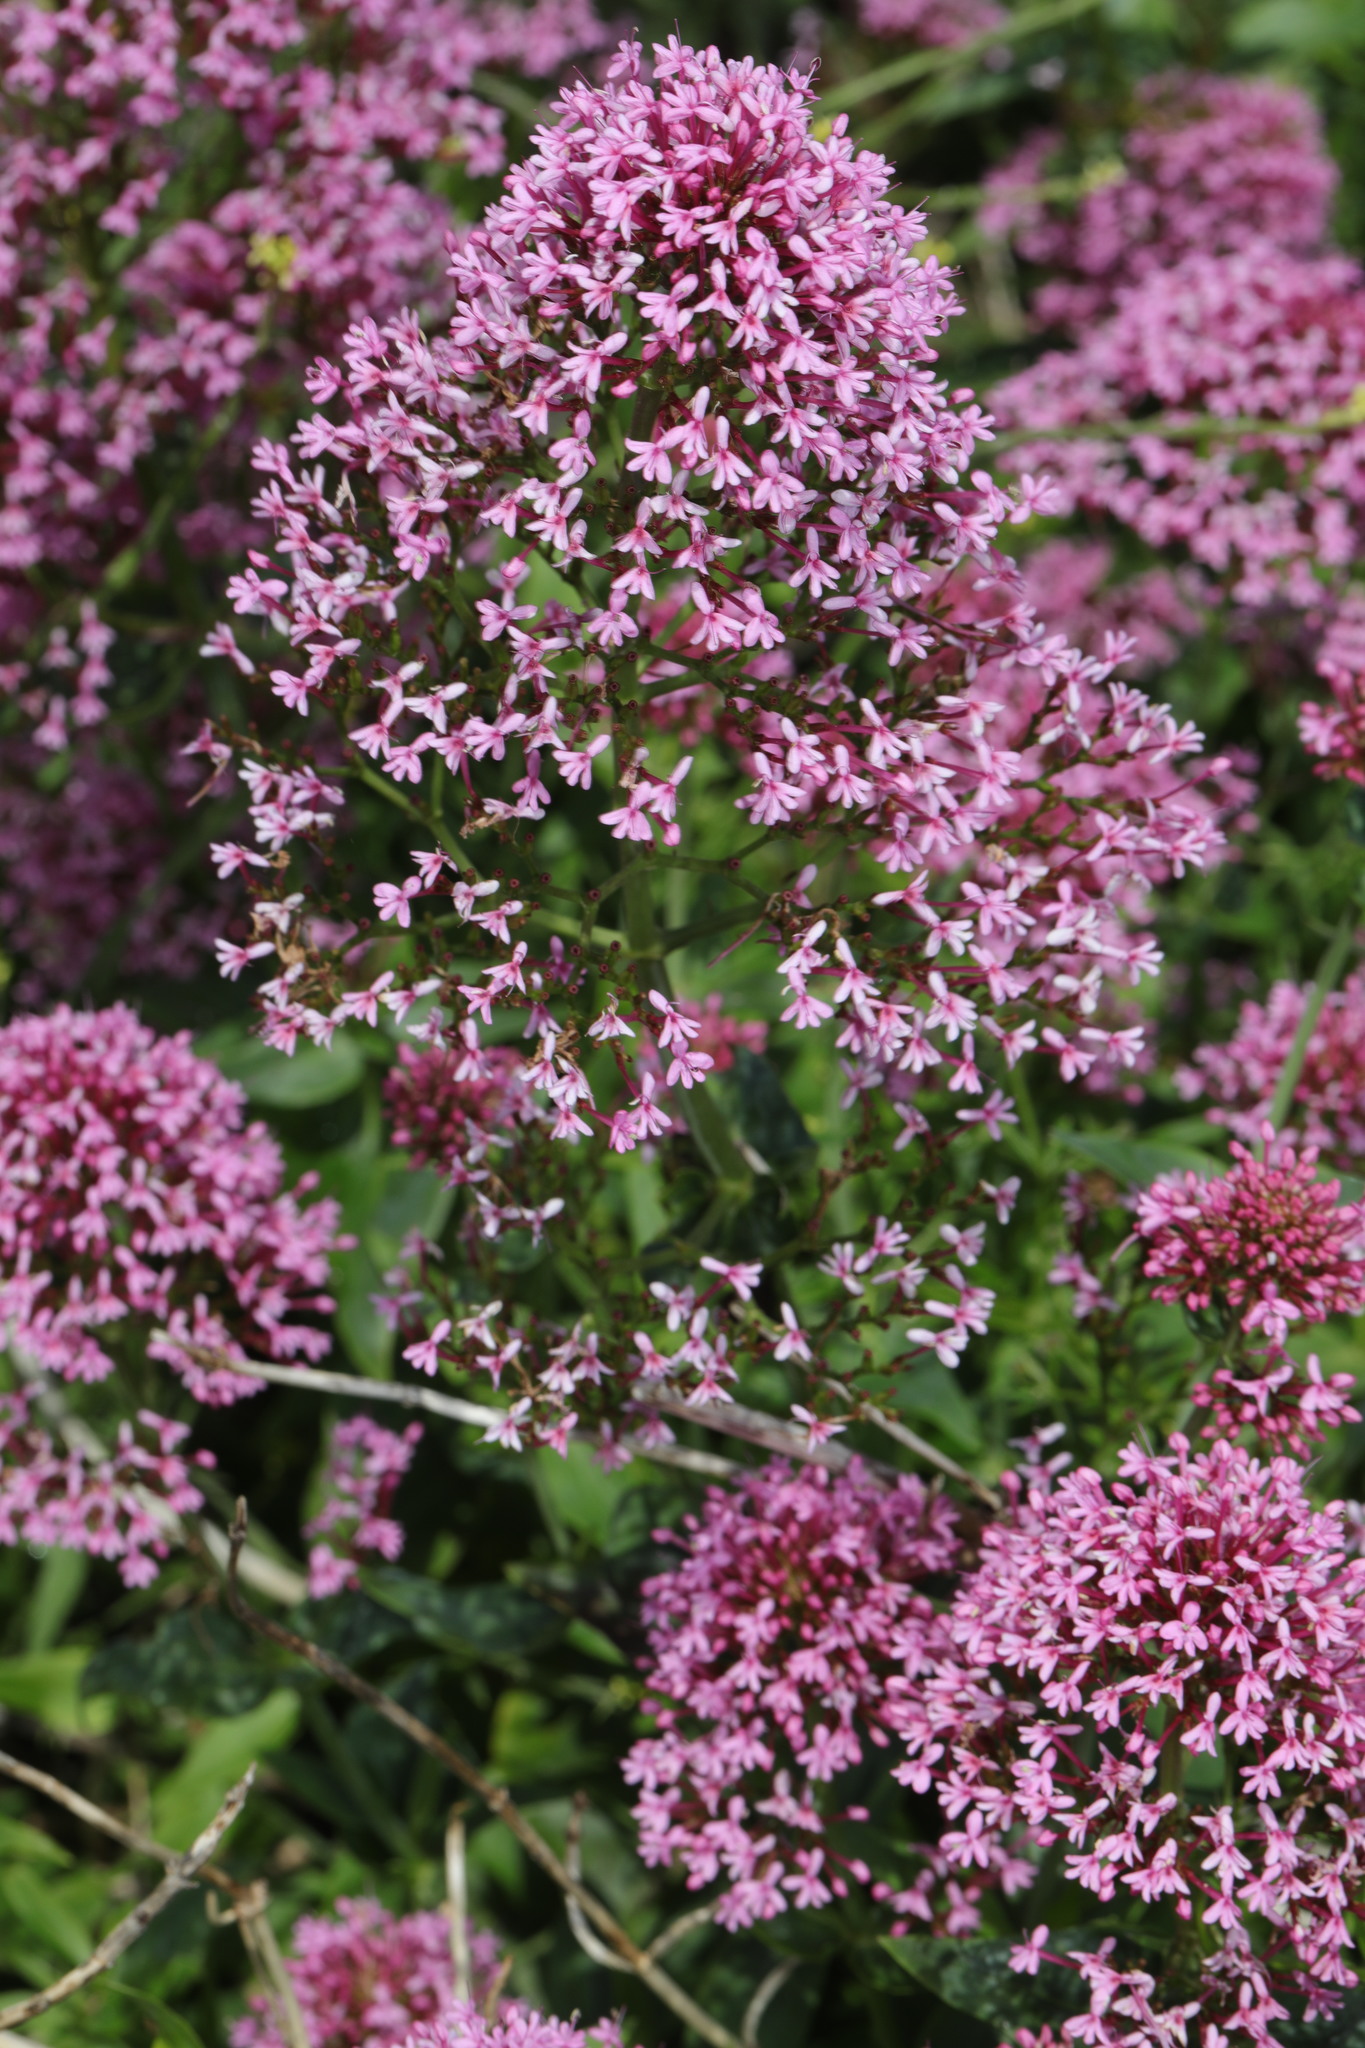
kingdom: Plantae
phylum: Tracheophyta
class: Magnoliopsida
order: Dipsacales
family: Caprifoliaceae
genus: Centranthus
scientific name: Centranthus ruber
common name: Red valerian
